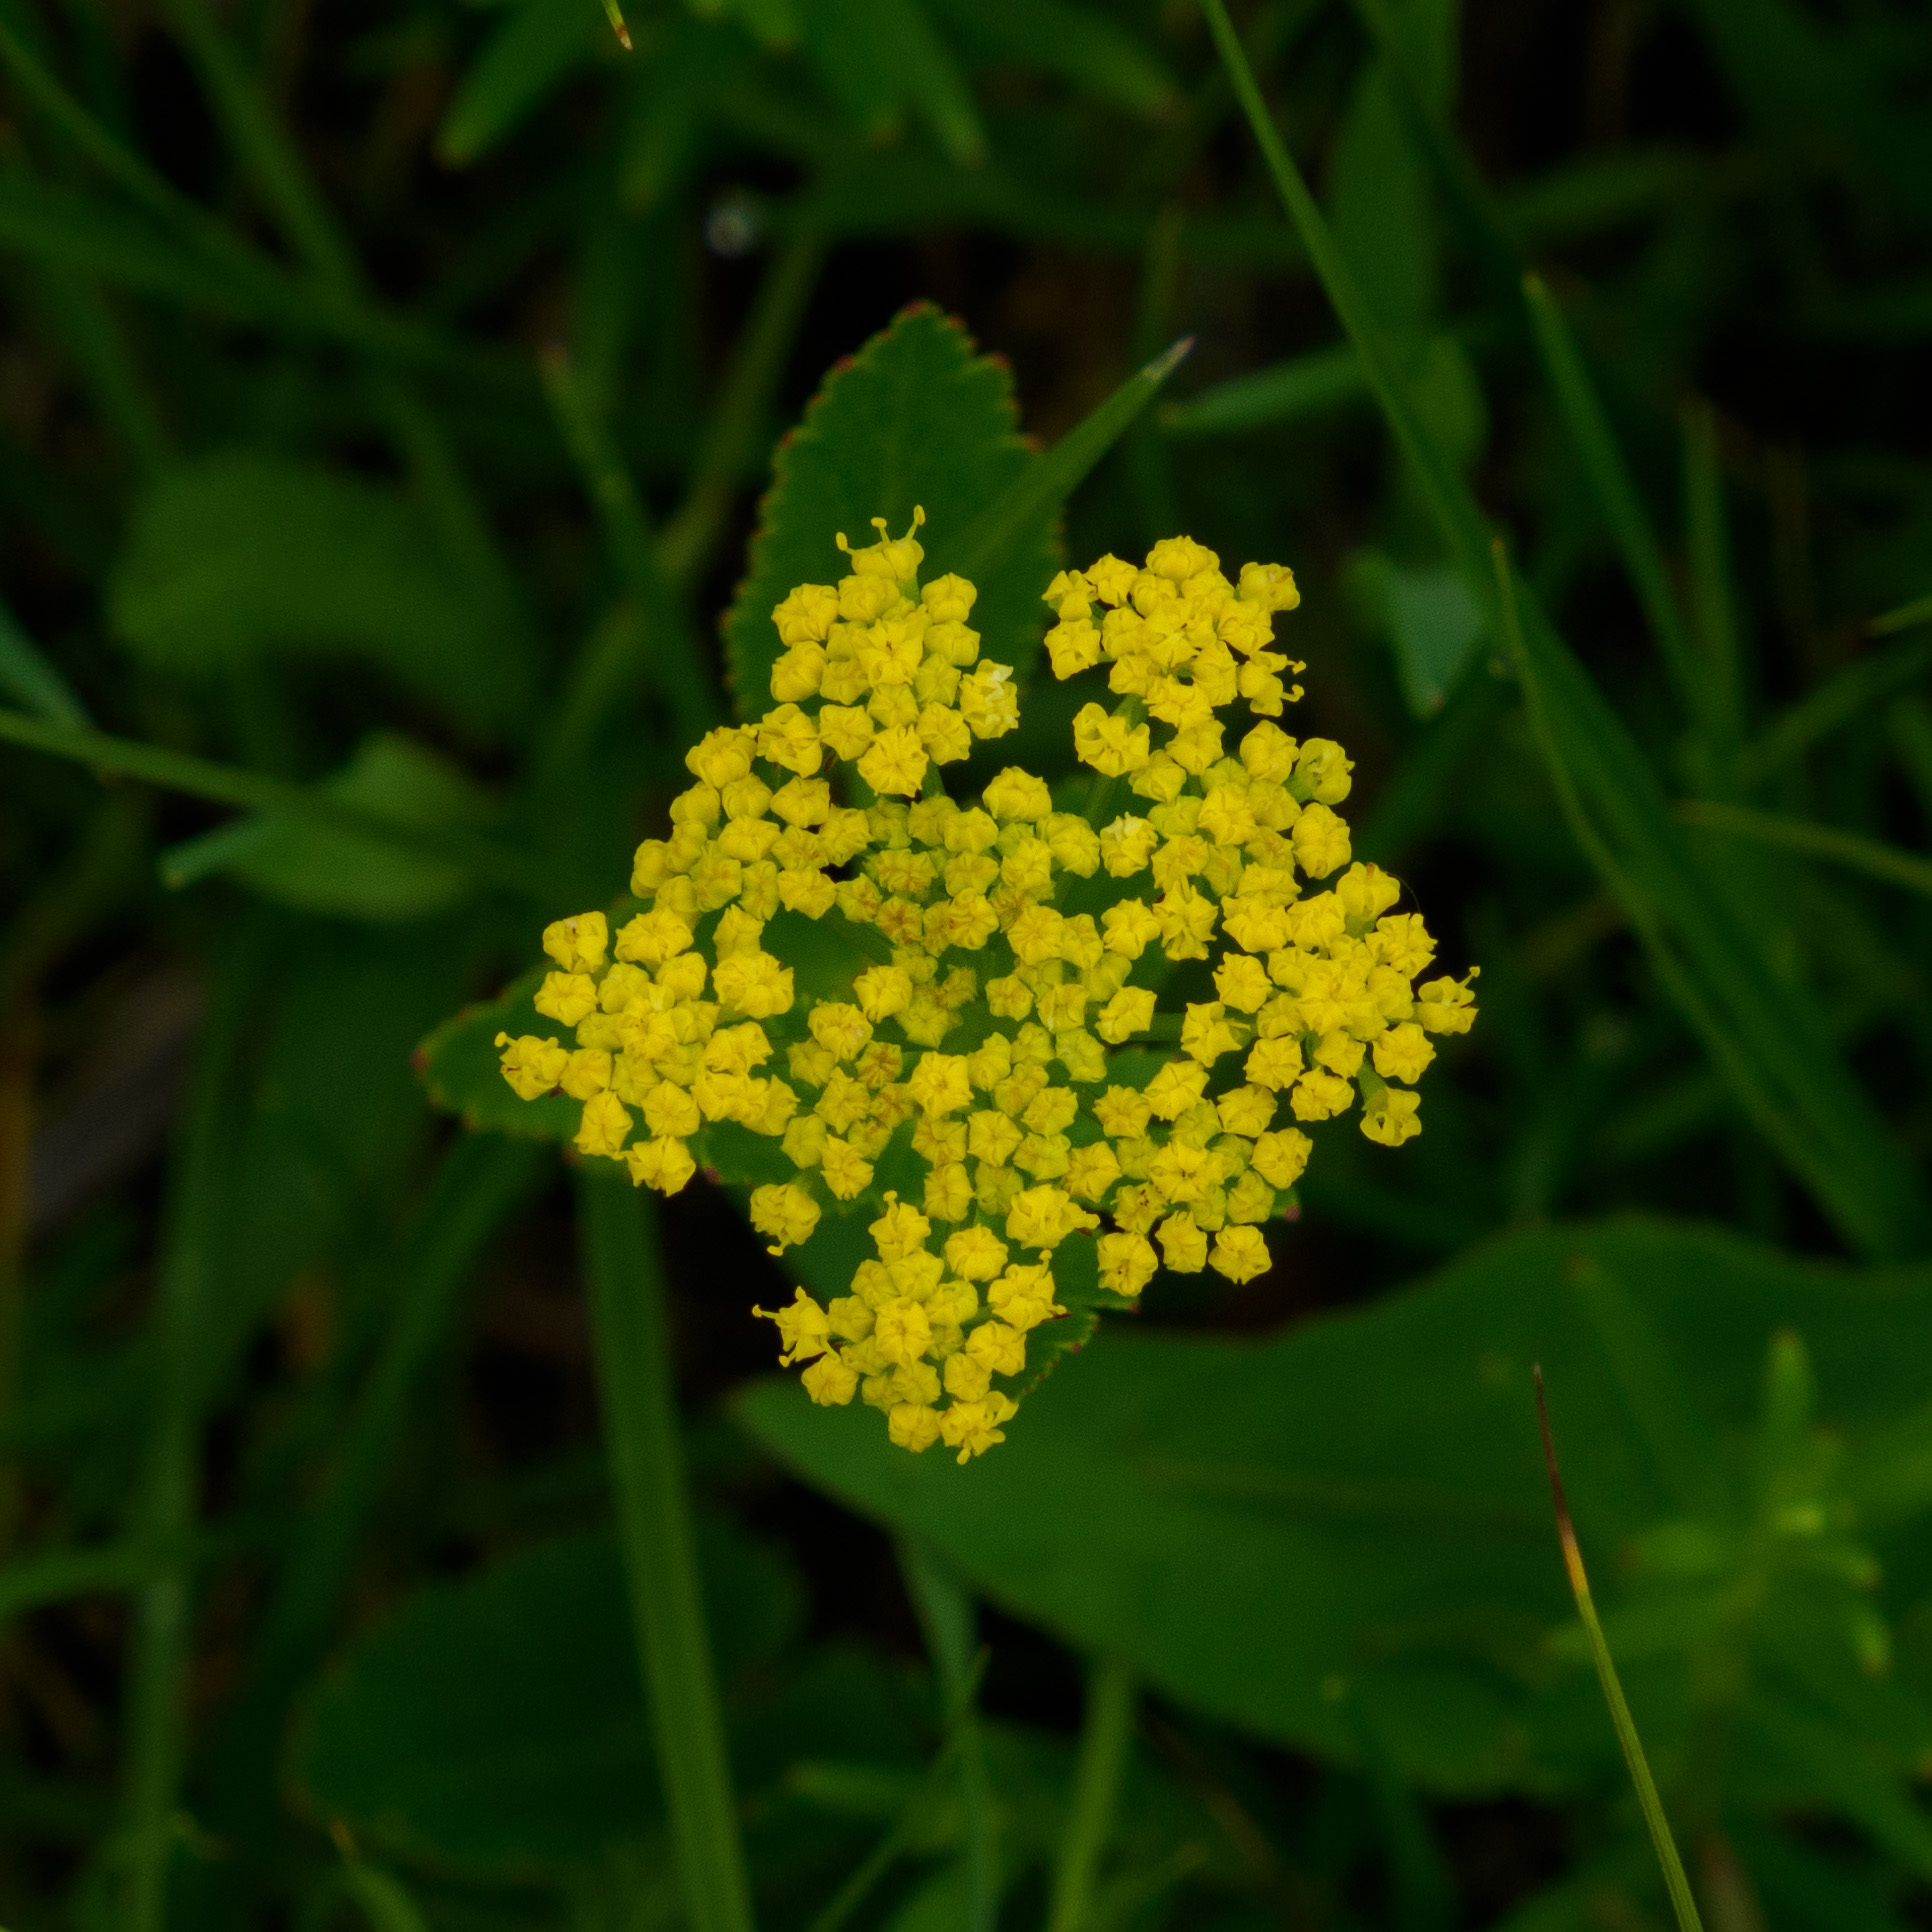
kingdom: Plantae
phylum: Tracheophyta
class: Magnoliopsida
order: Apiales
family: Apiaceae
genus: Zizia
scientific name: Zizia aptera
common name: Heart-leaved alexanders
